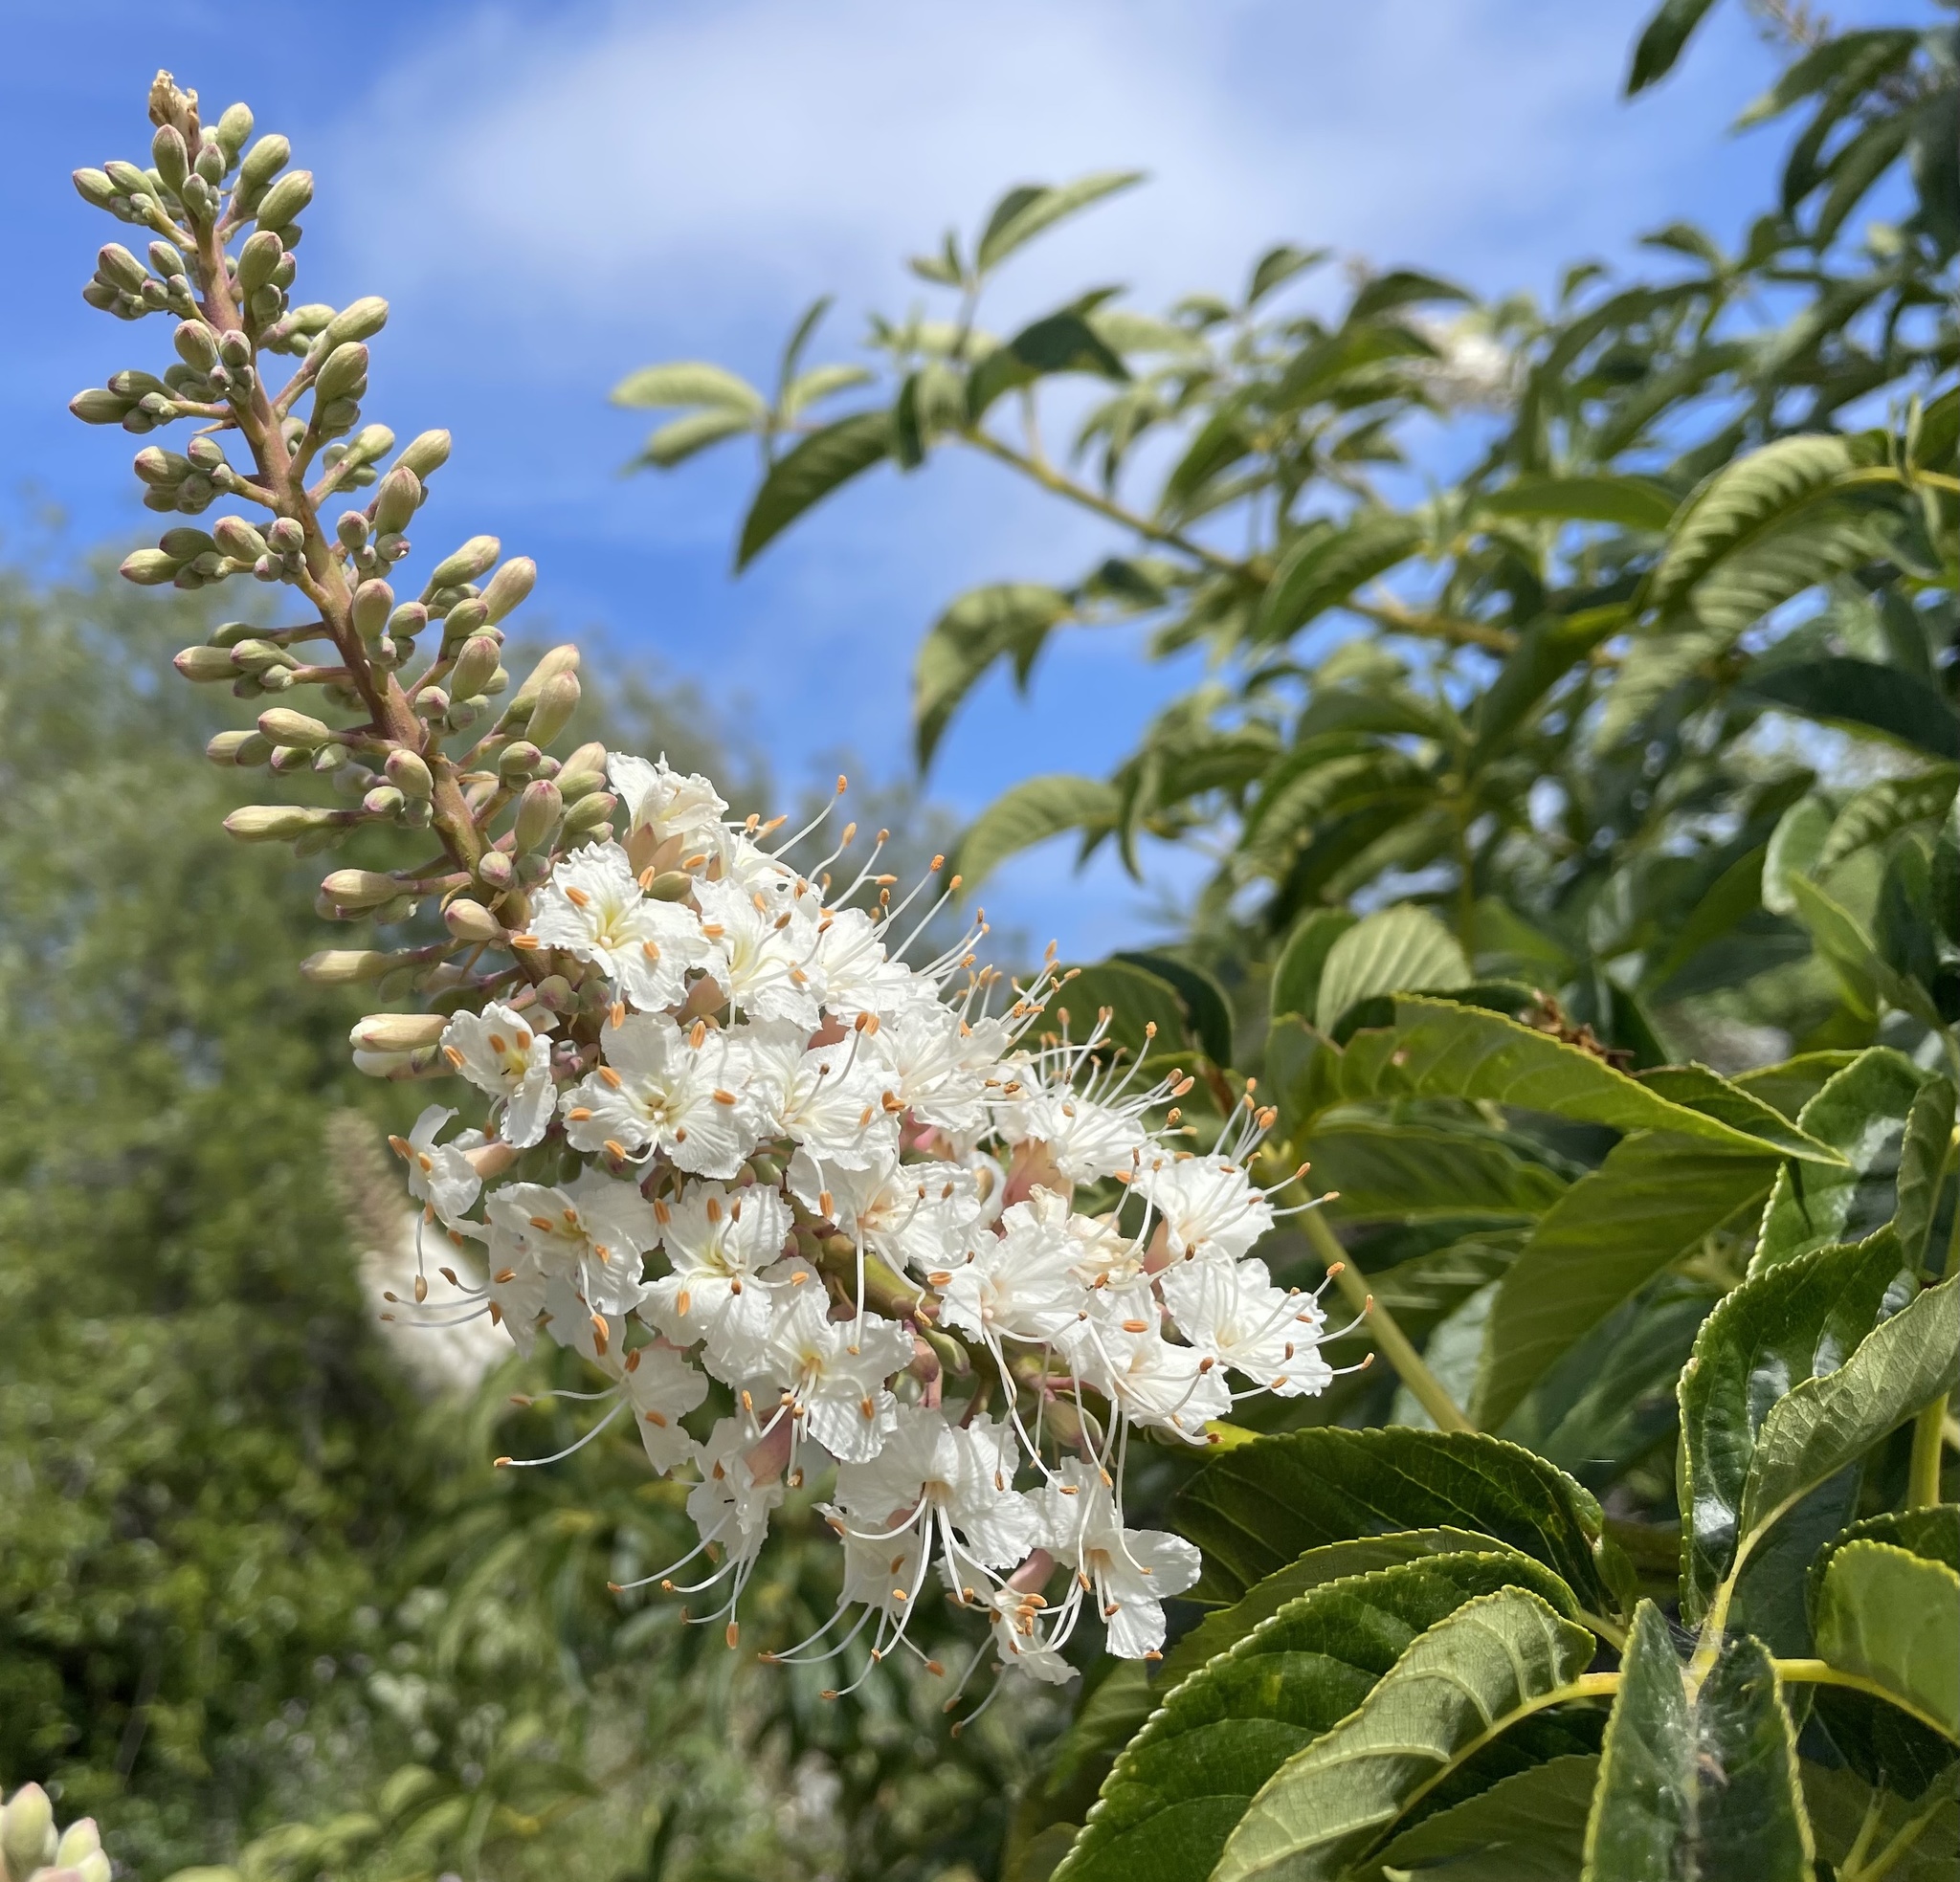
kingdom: Plantae
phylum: Tracheophyta
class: Magnoliopsida
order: Sapindales
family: Sapindaceae
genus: Aesculus
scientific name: Aesculus californica
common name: California buckeye
